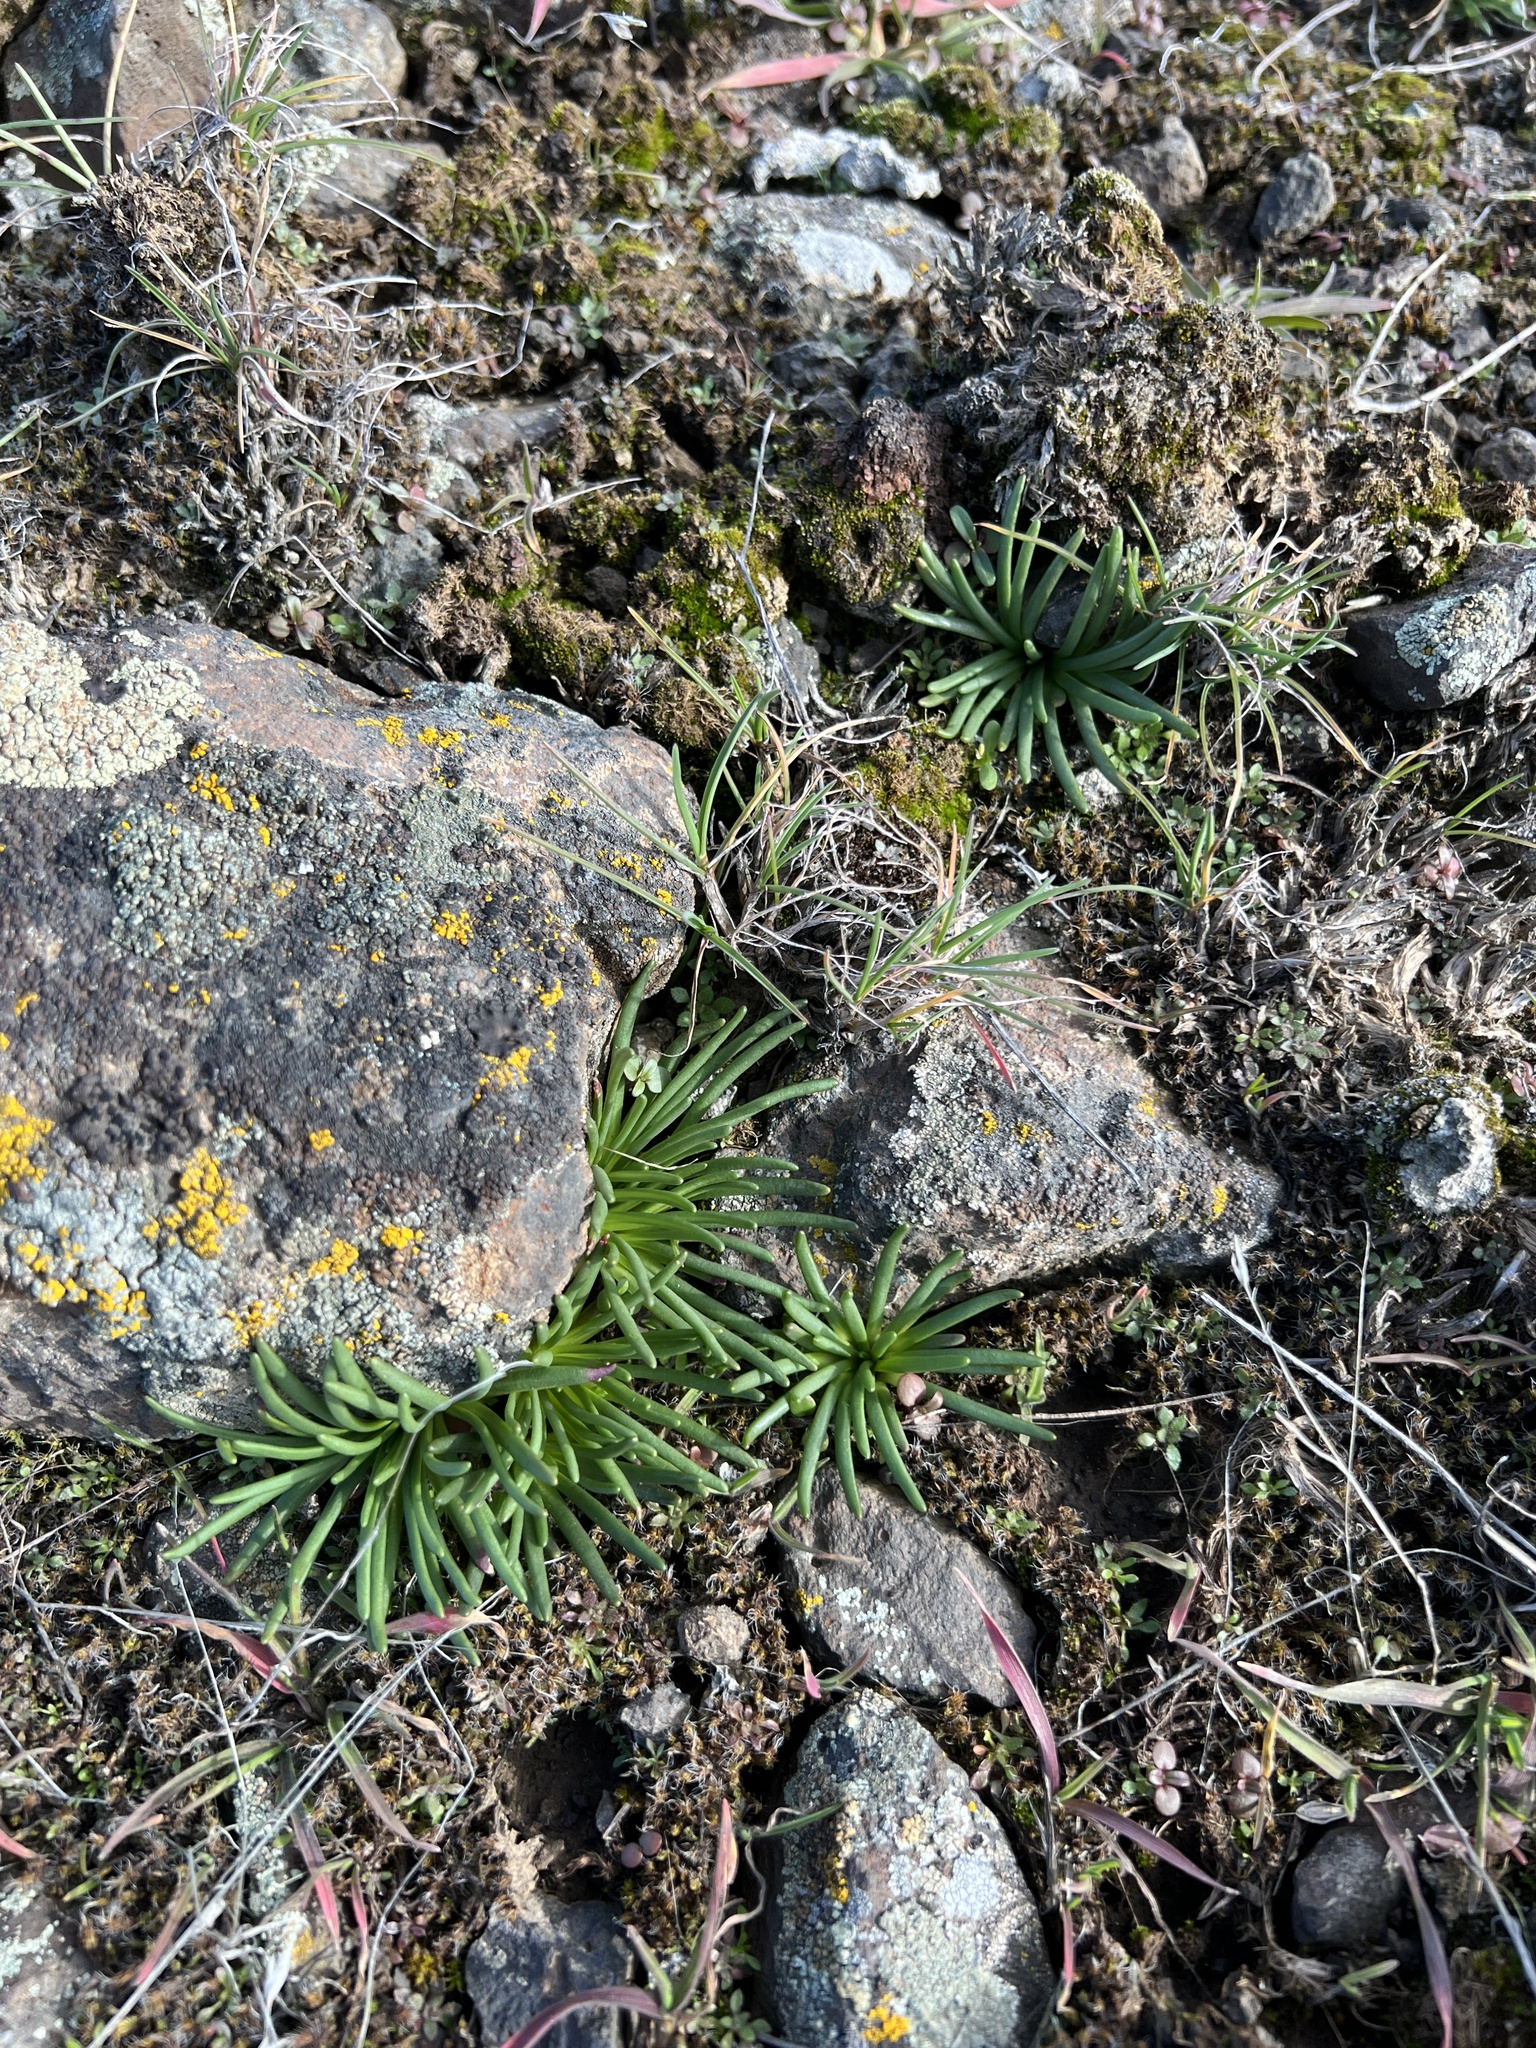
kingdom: Plantae
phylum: Tracheophyta
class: Magnoliopsida
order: Caryophyllales
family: Montiaceae
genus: Lewisia
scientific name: Lewisia rediviva
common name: Bitter-root
